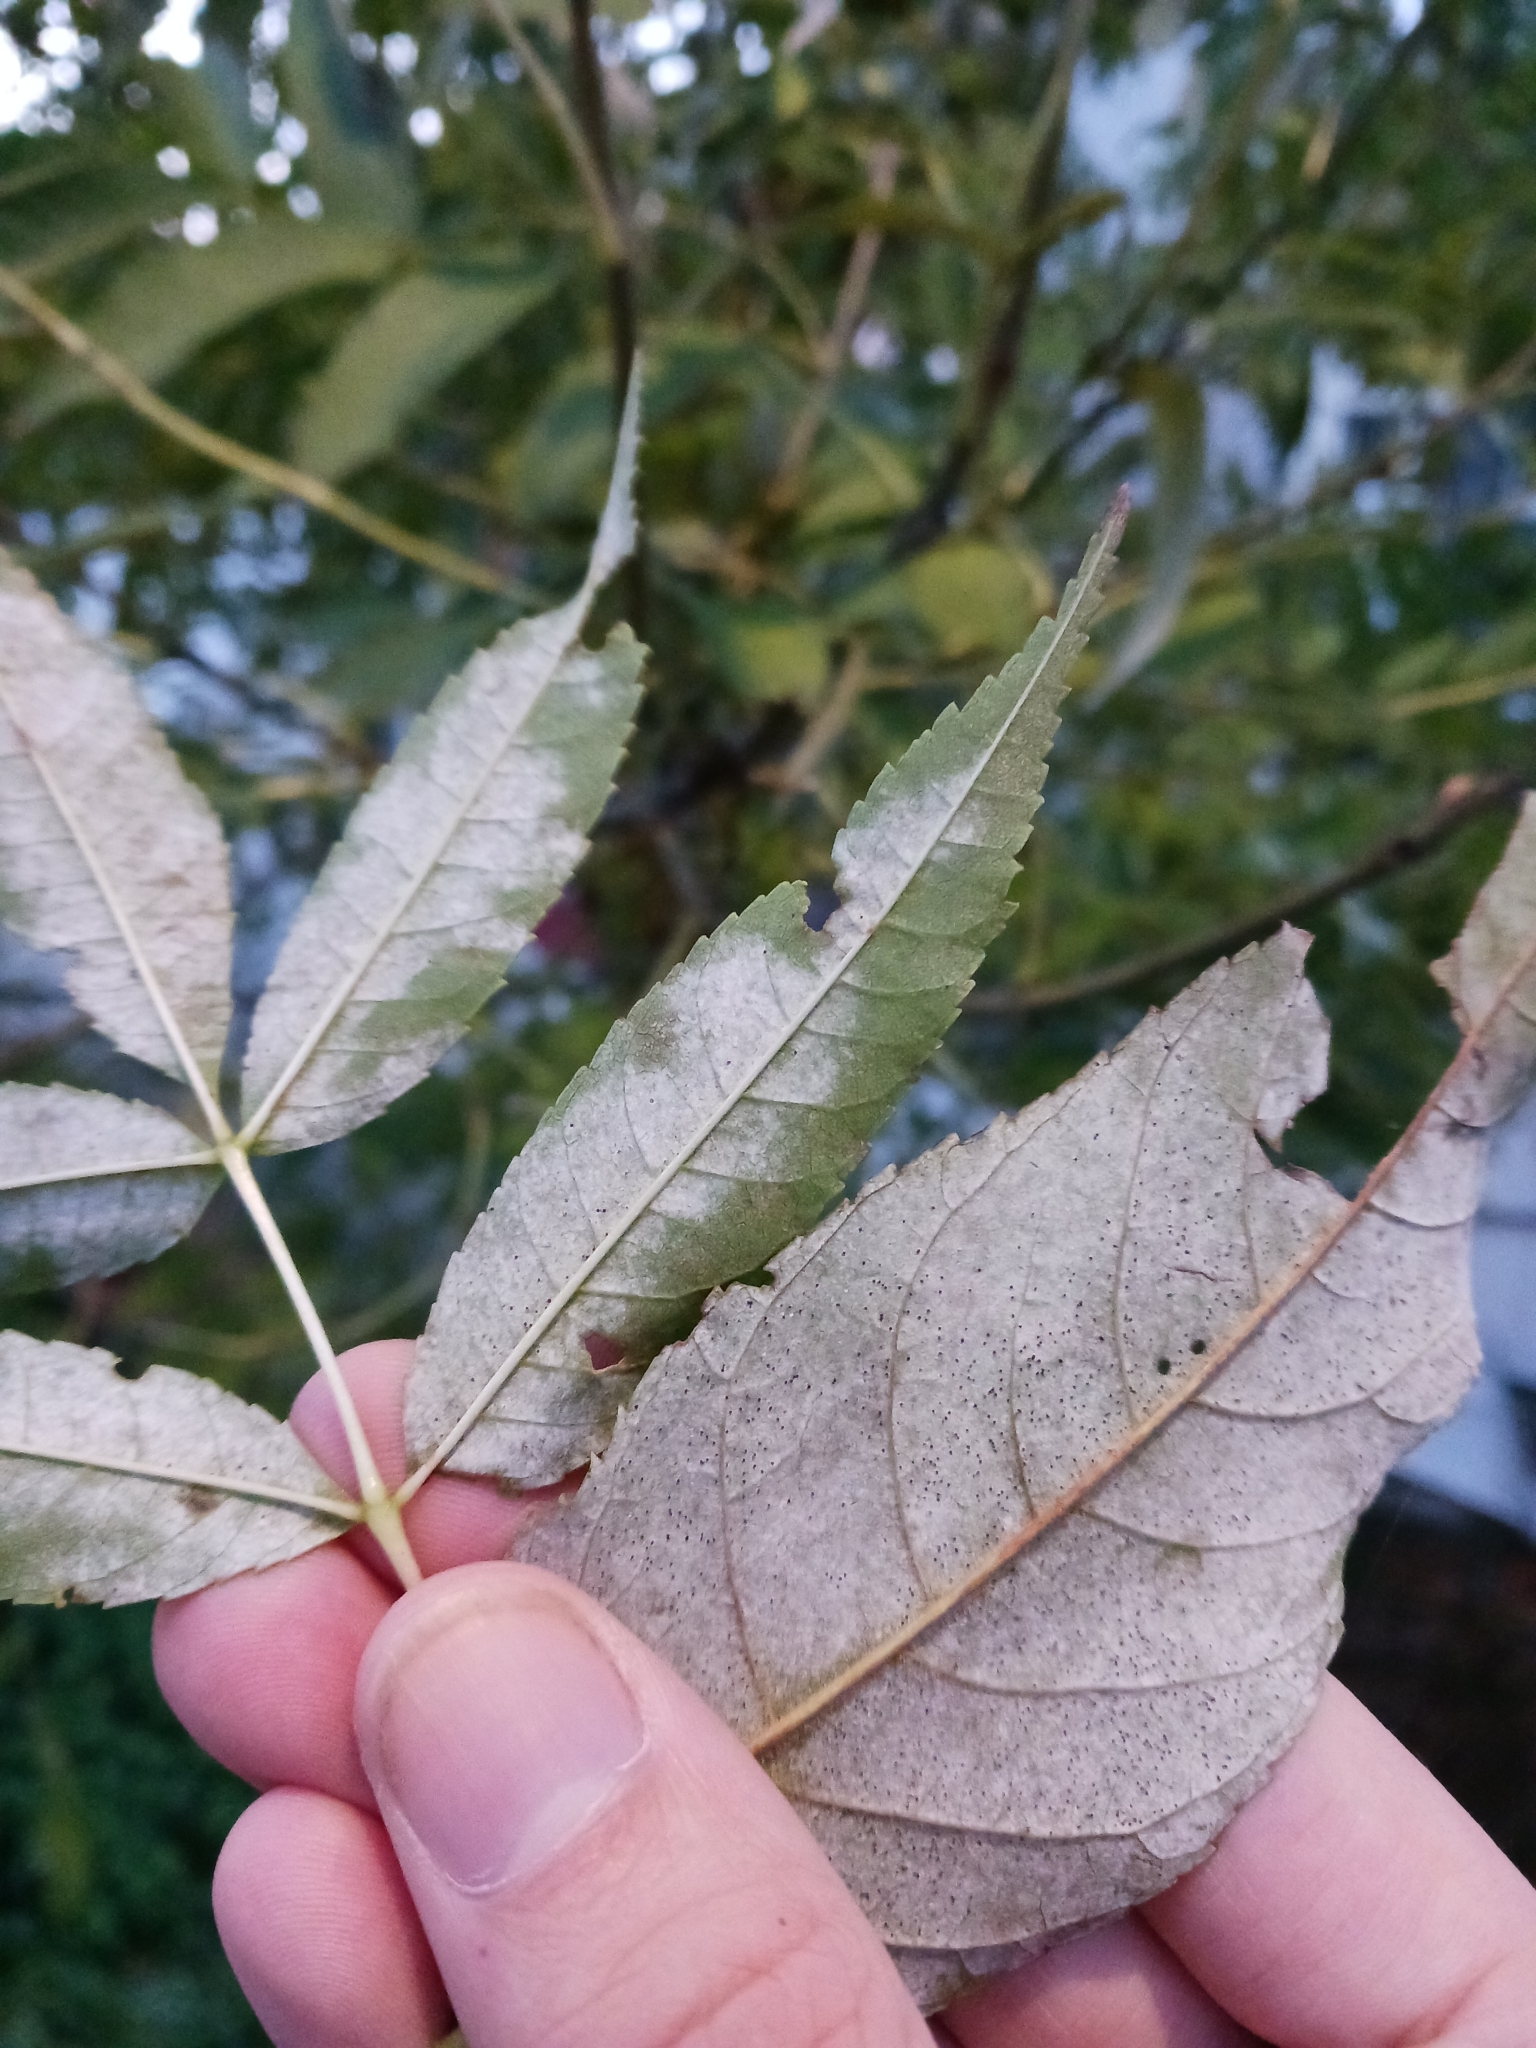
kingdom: Fungi
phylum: Ascomycota
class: Leotiomycetes
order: Helotiales
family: Erysiphaceae
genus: Phyllactinia
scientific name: Phyllactinia fraxini
